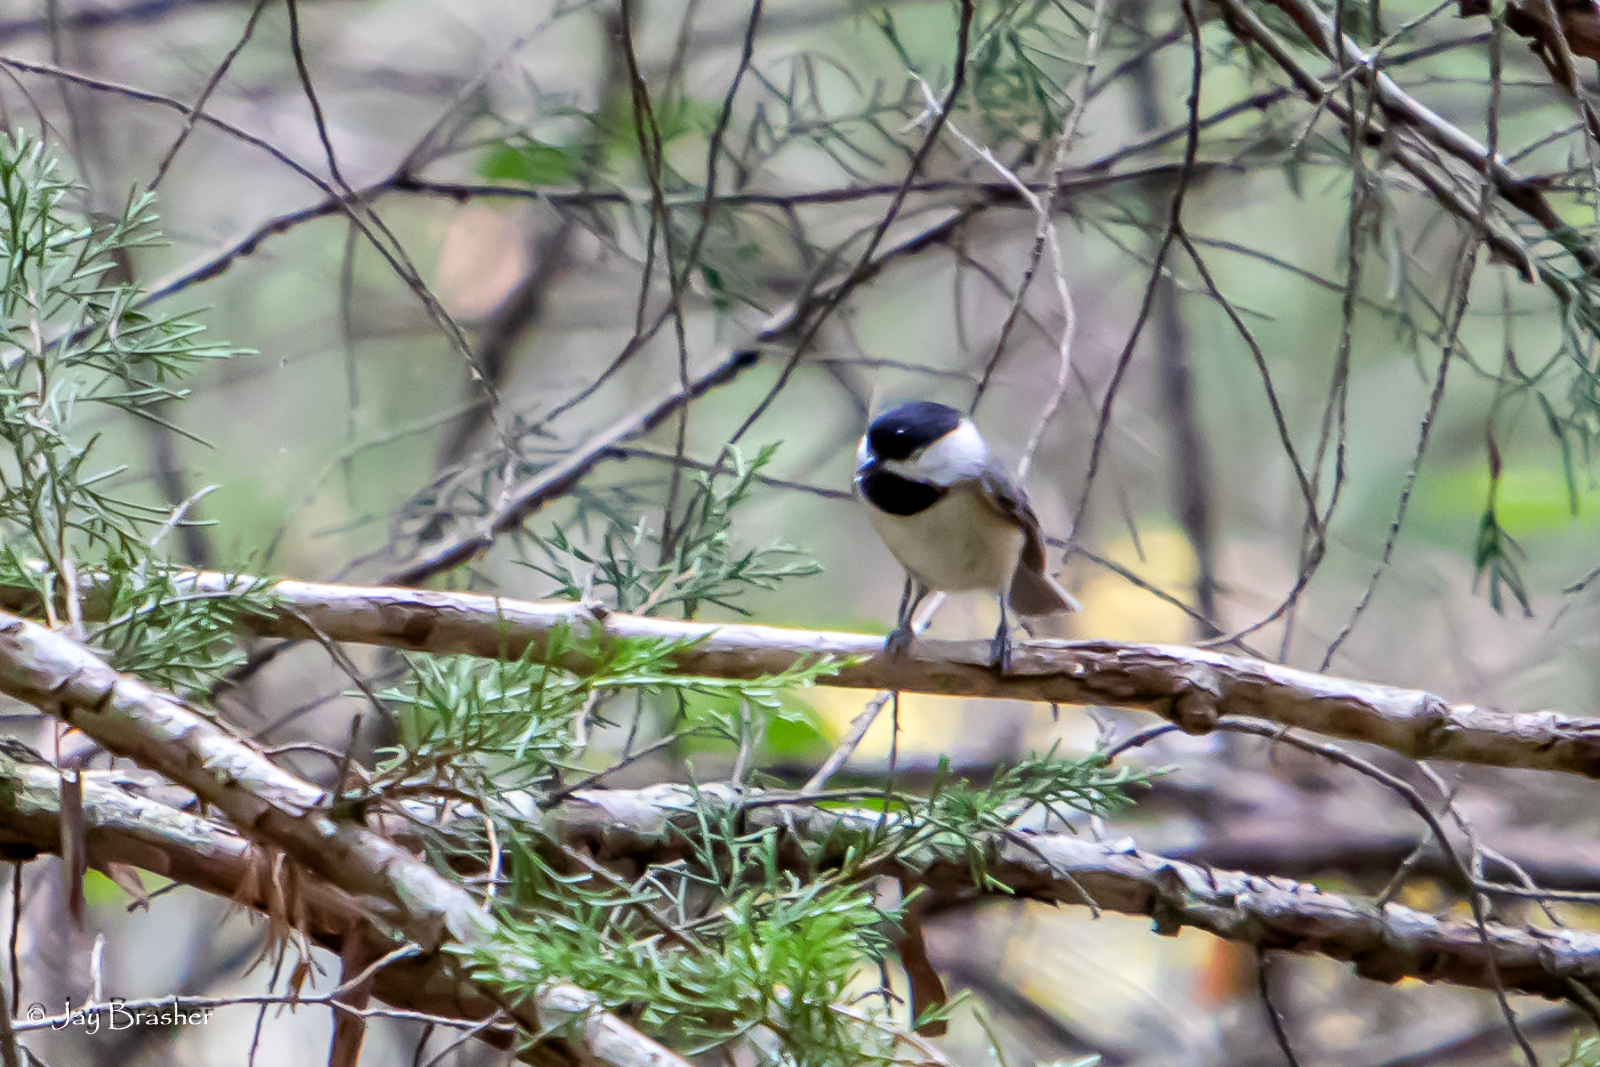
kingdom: Animalia
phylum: Chordata
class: Aves
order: Passeriformes
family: Paridae
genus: Poecile
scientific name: Poecile carolinensis
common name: Carolina chickadee
